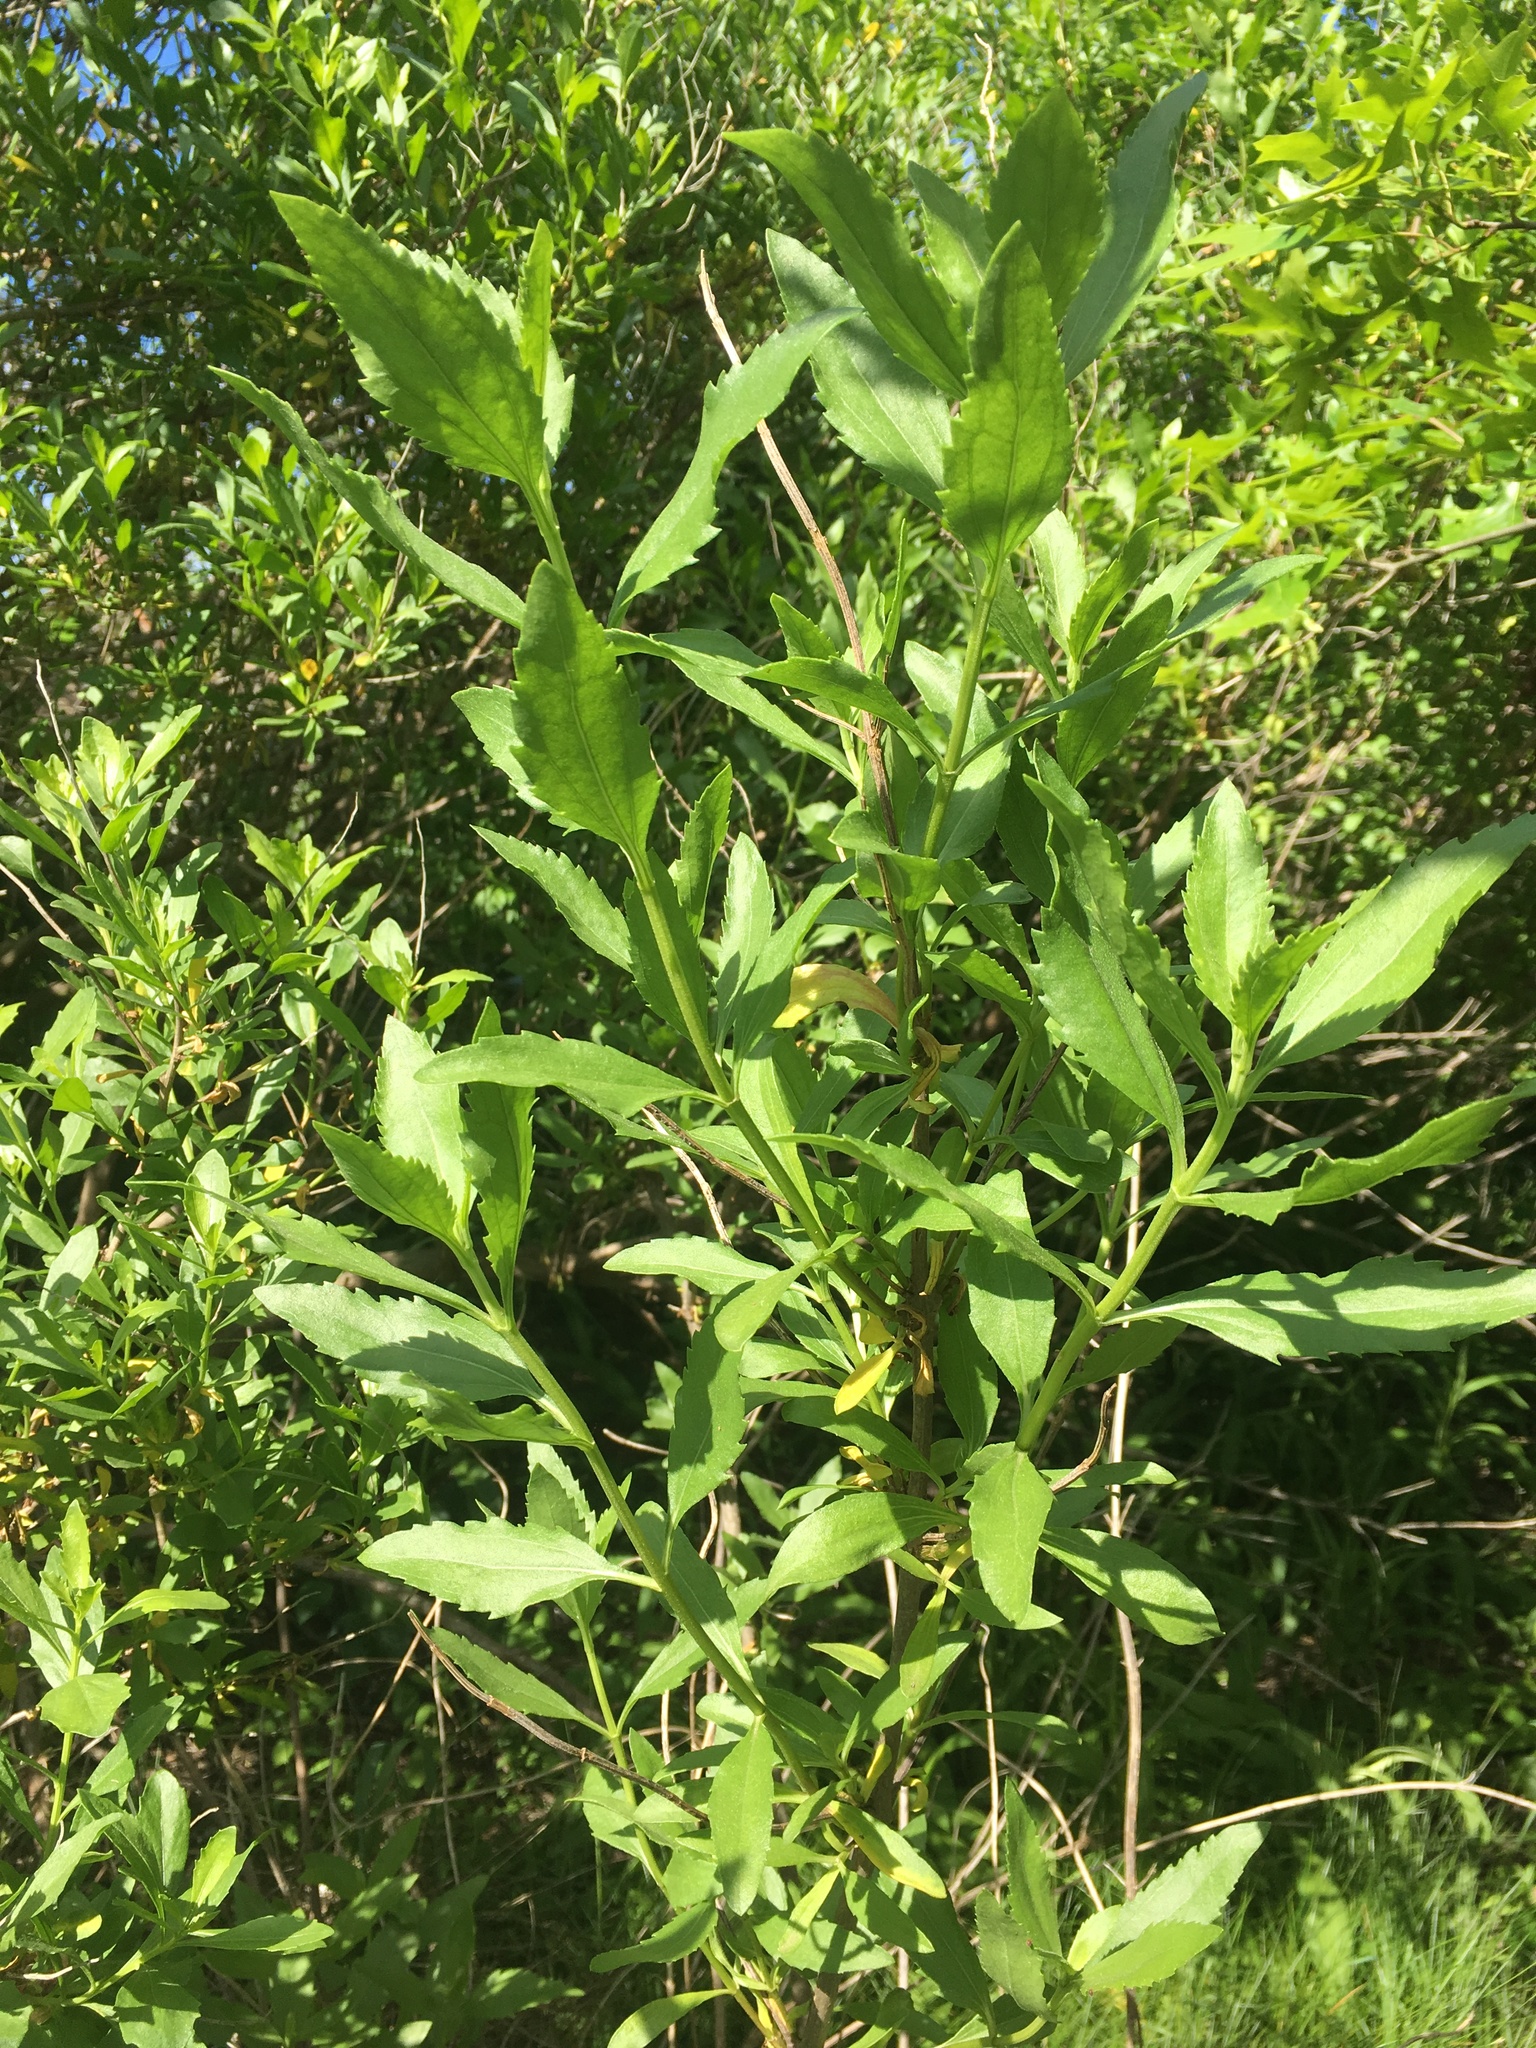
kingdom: Plantae
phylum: Tracheophyta
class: Magnoliopsida
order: Asterales
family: Asteraceae
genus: Iva
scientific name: Iva frutescens
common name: Big-leaved marsh-elder
